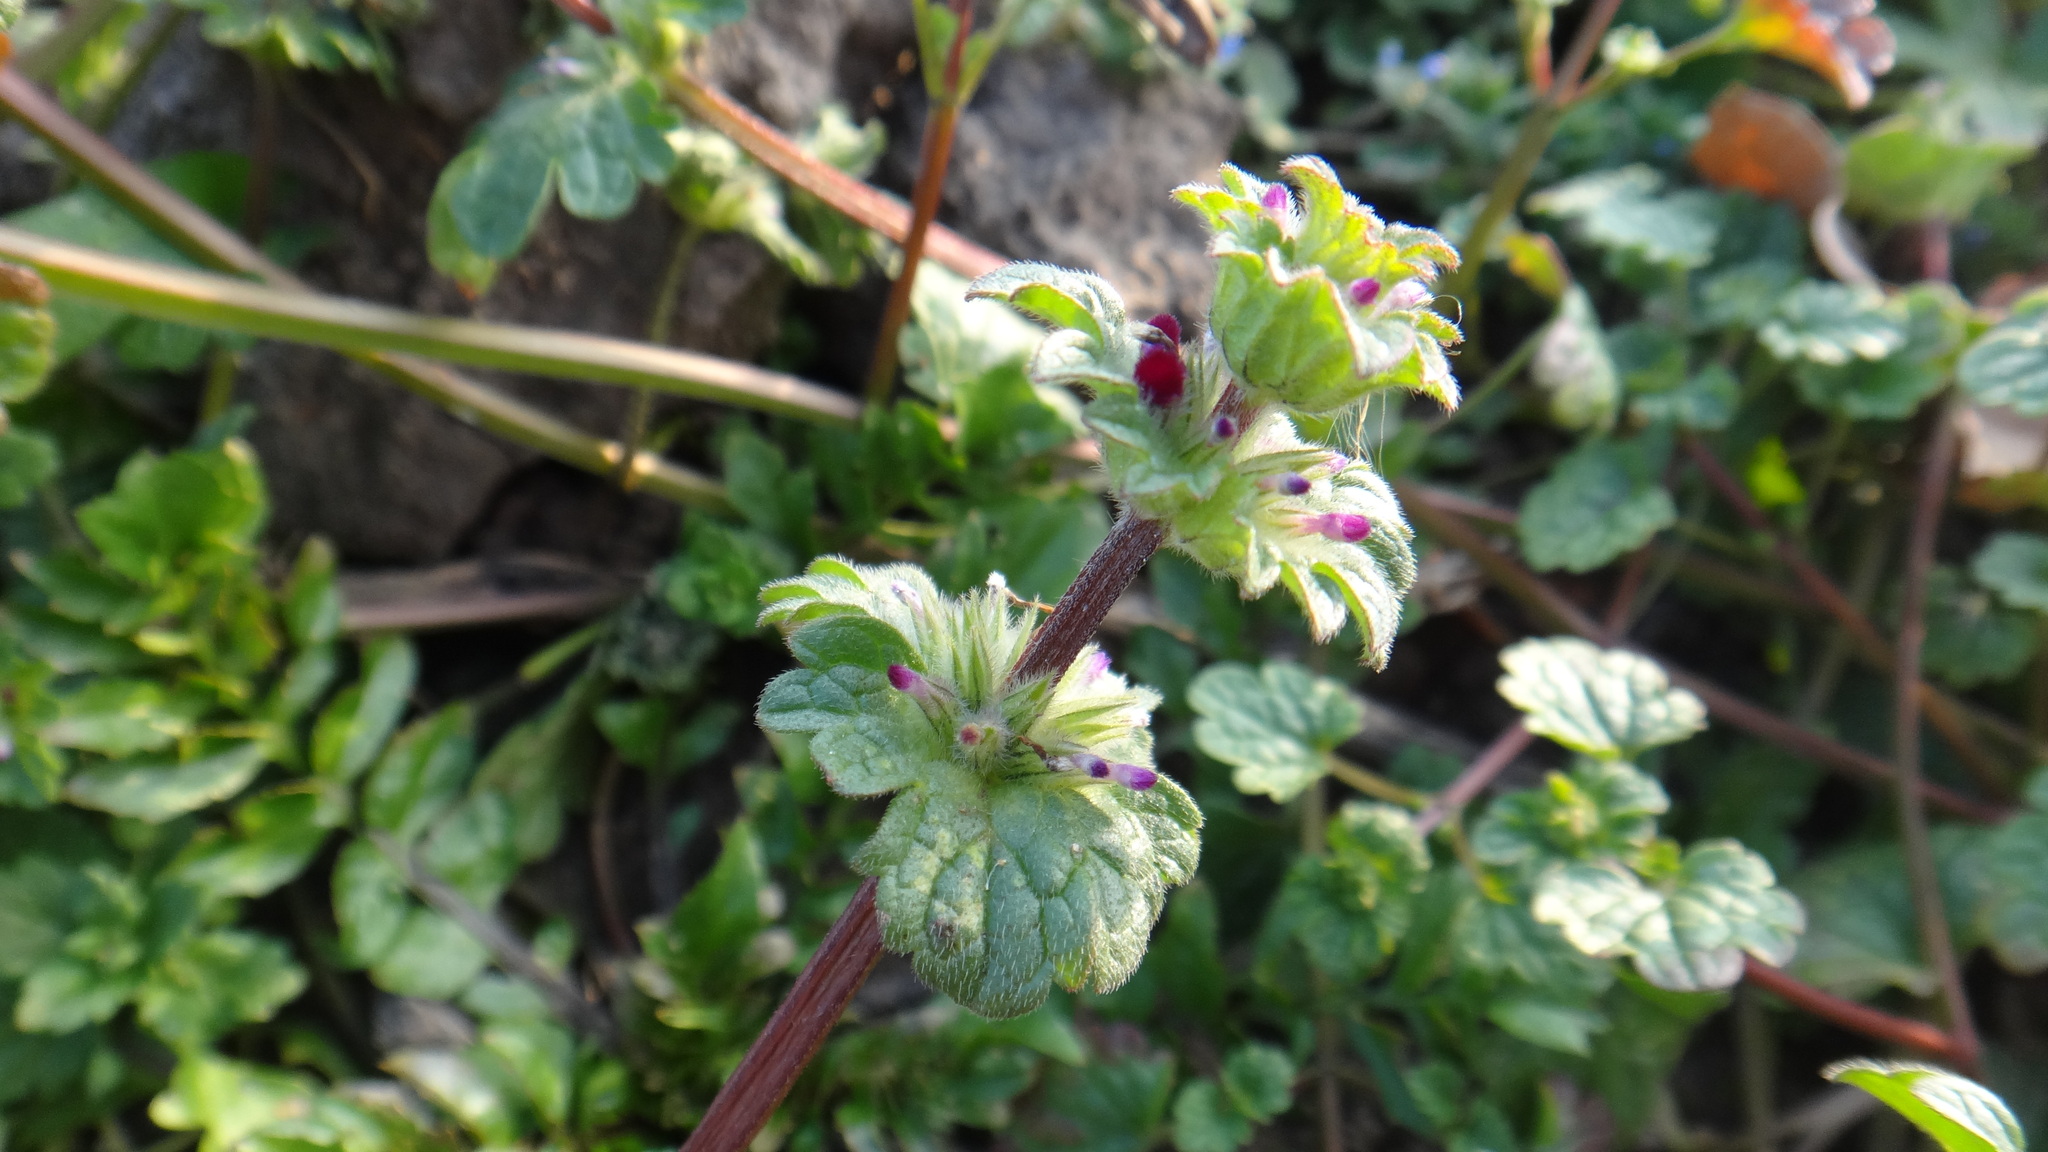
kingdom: Plantae
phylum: Tracheophyta
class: Magnoliopsida
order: Lamiales
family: Lamiaceae
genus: Lamium
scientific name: Lamium amplexicaule
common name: Henbit dead-nettle
